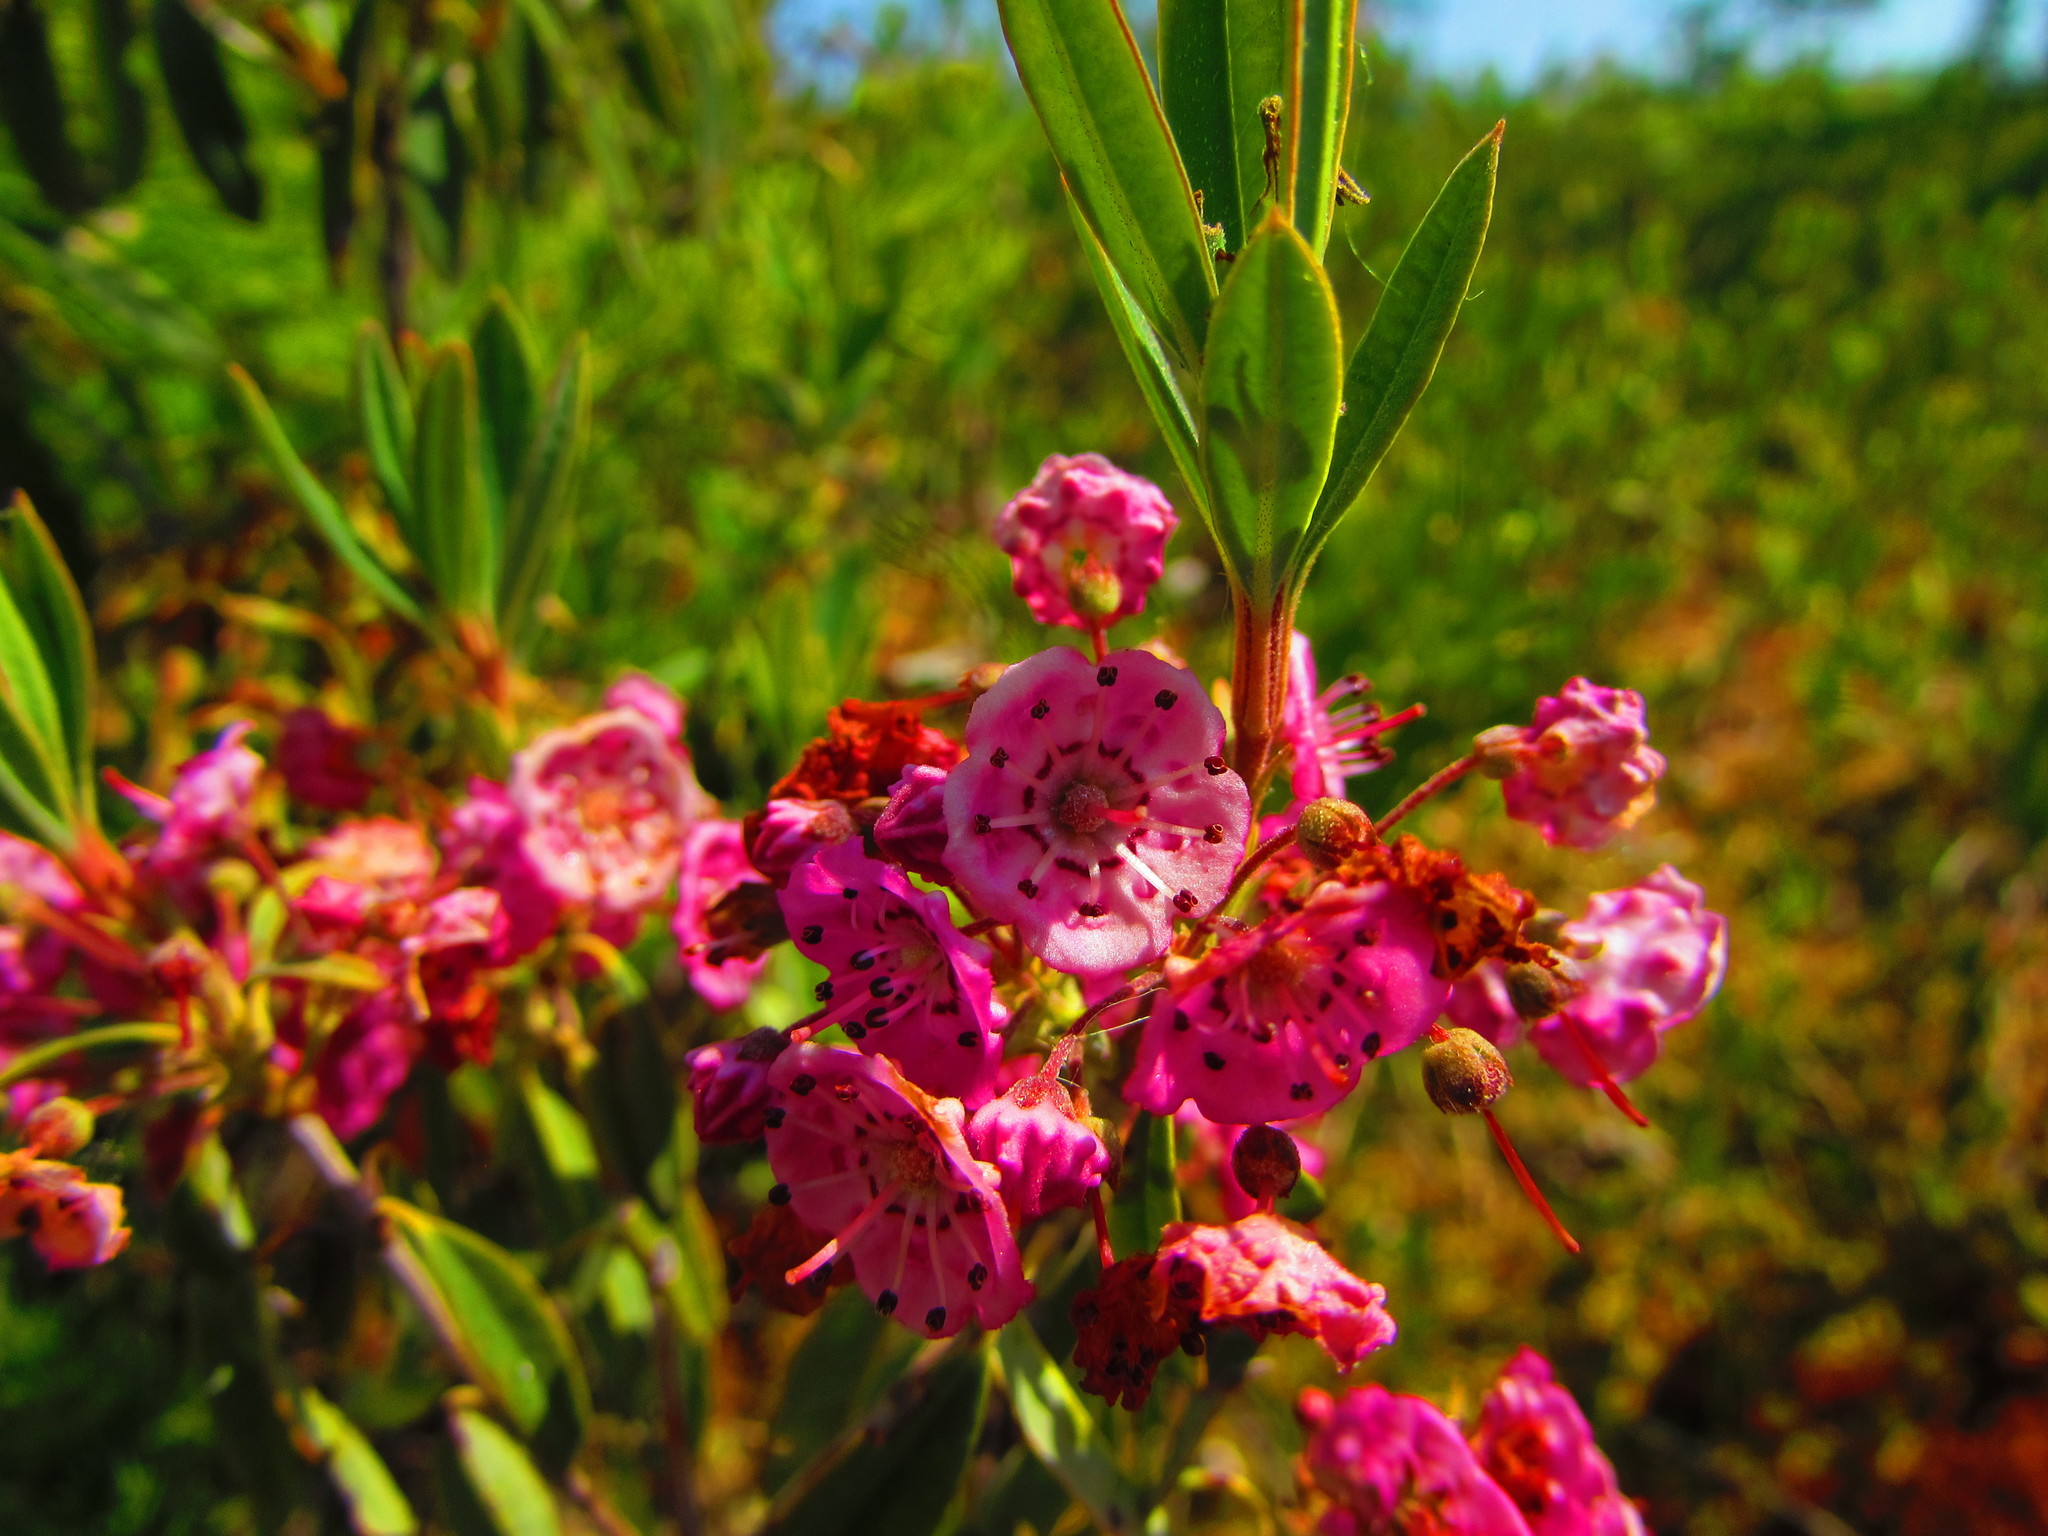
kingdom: Plantae
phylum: Tracheophyta
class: Magnoliopsida
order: Ericales
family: Ericaceae
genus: Kalmia
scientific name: Kalmia angustifolia
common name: Sheep-laurel
